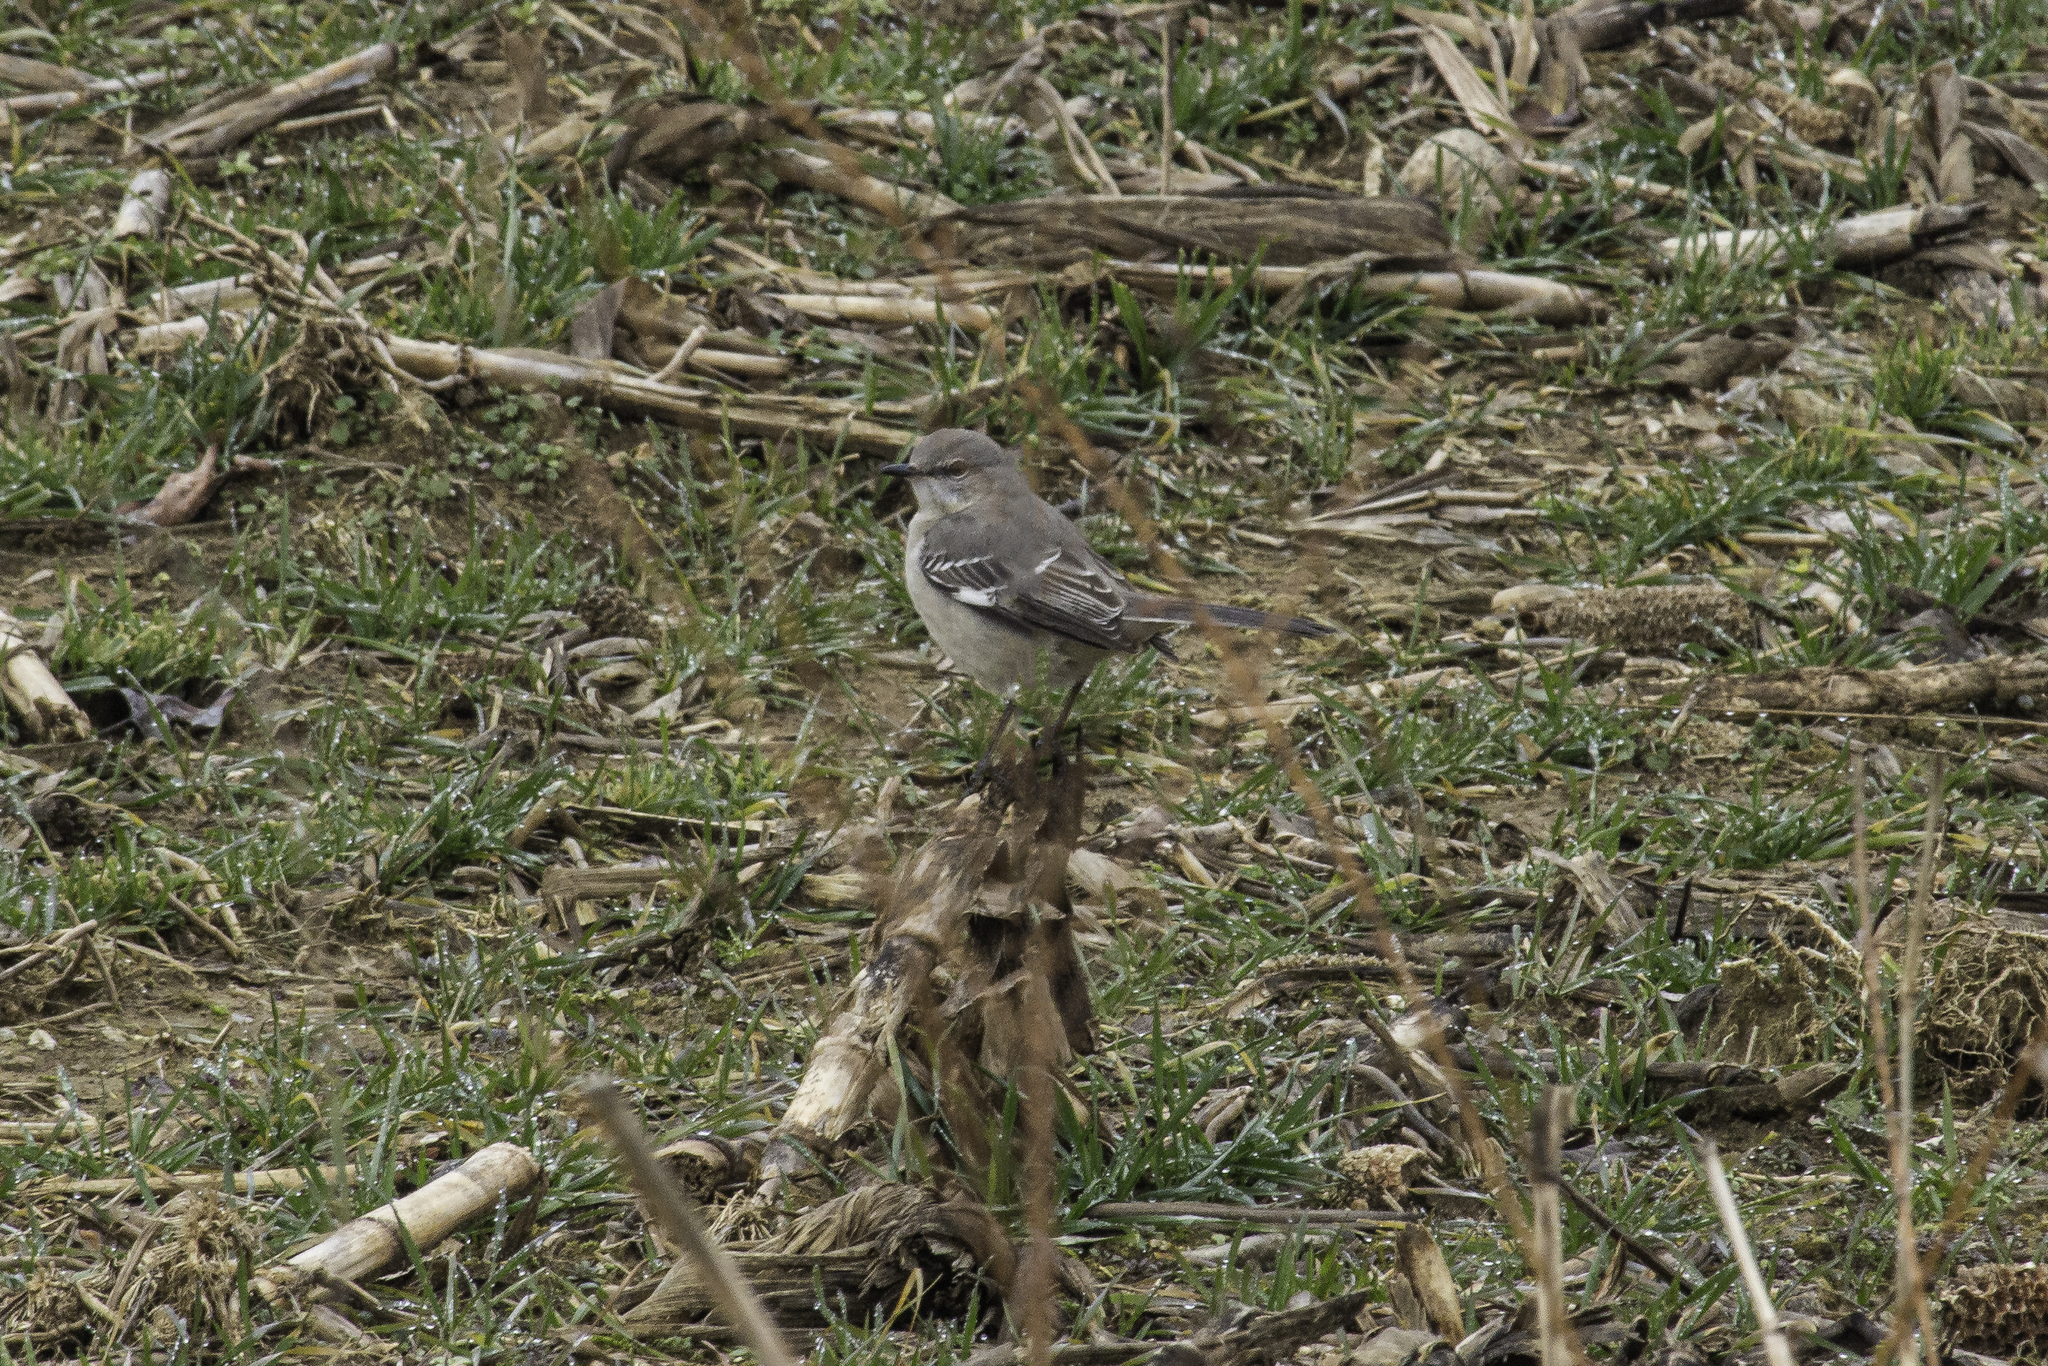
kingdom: Animalia
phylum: Chordata
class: Aves
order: Passeriformes
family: Mimidae
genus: Mimus
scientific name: Mimus polyglottos
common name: Northern mockingbird
